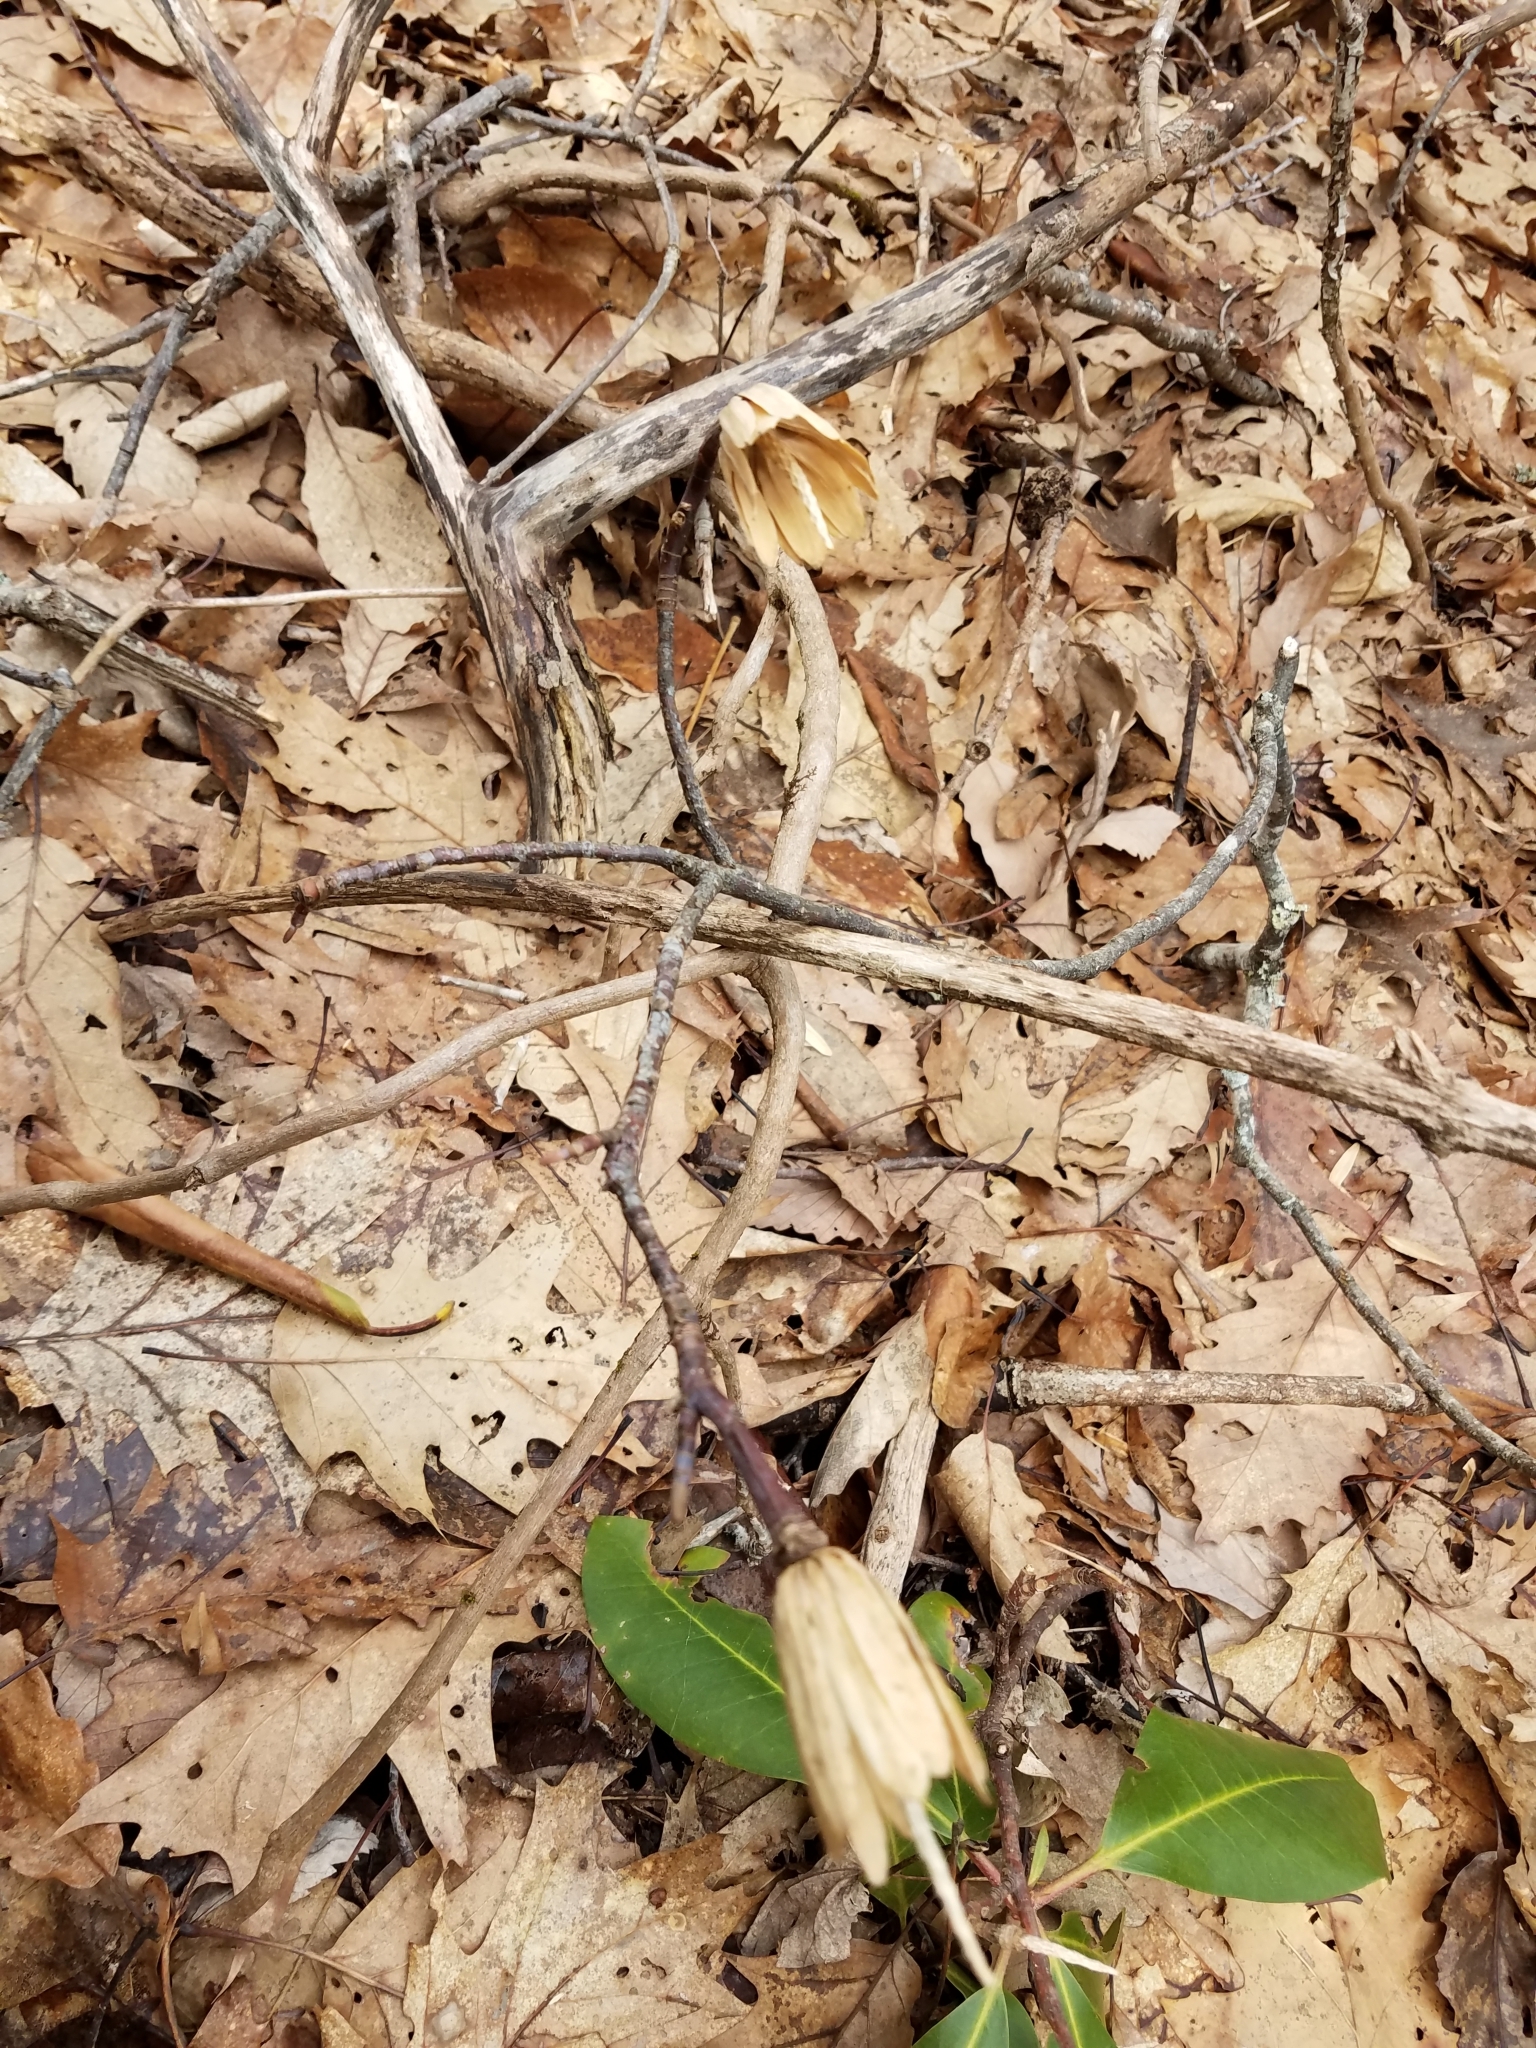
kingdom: Plantae
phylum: Tracheophyta
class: Magnoliopsida
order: Magnoliales
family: Magnoliaceae
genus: Liriodendron
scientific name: Liriodendron tulipifera
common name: Tulip tree
